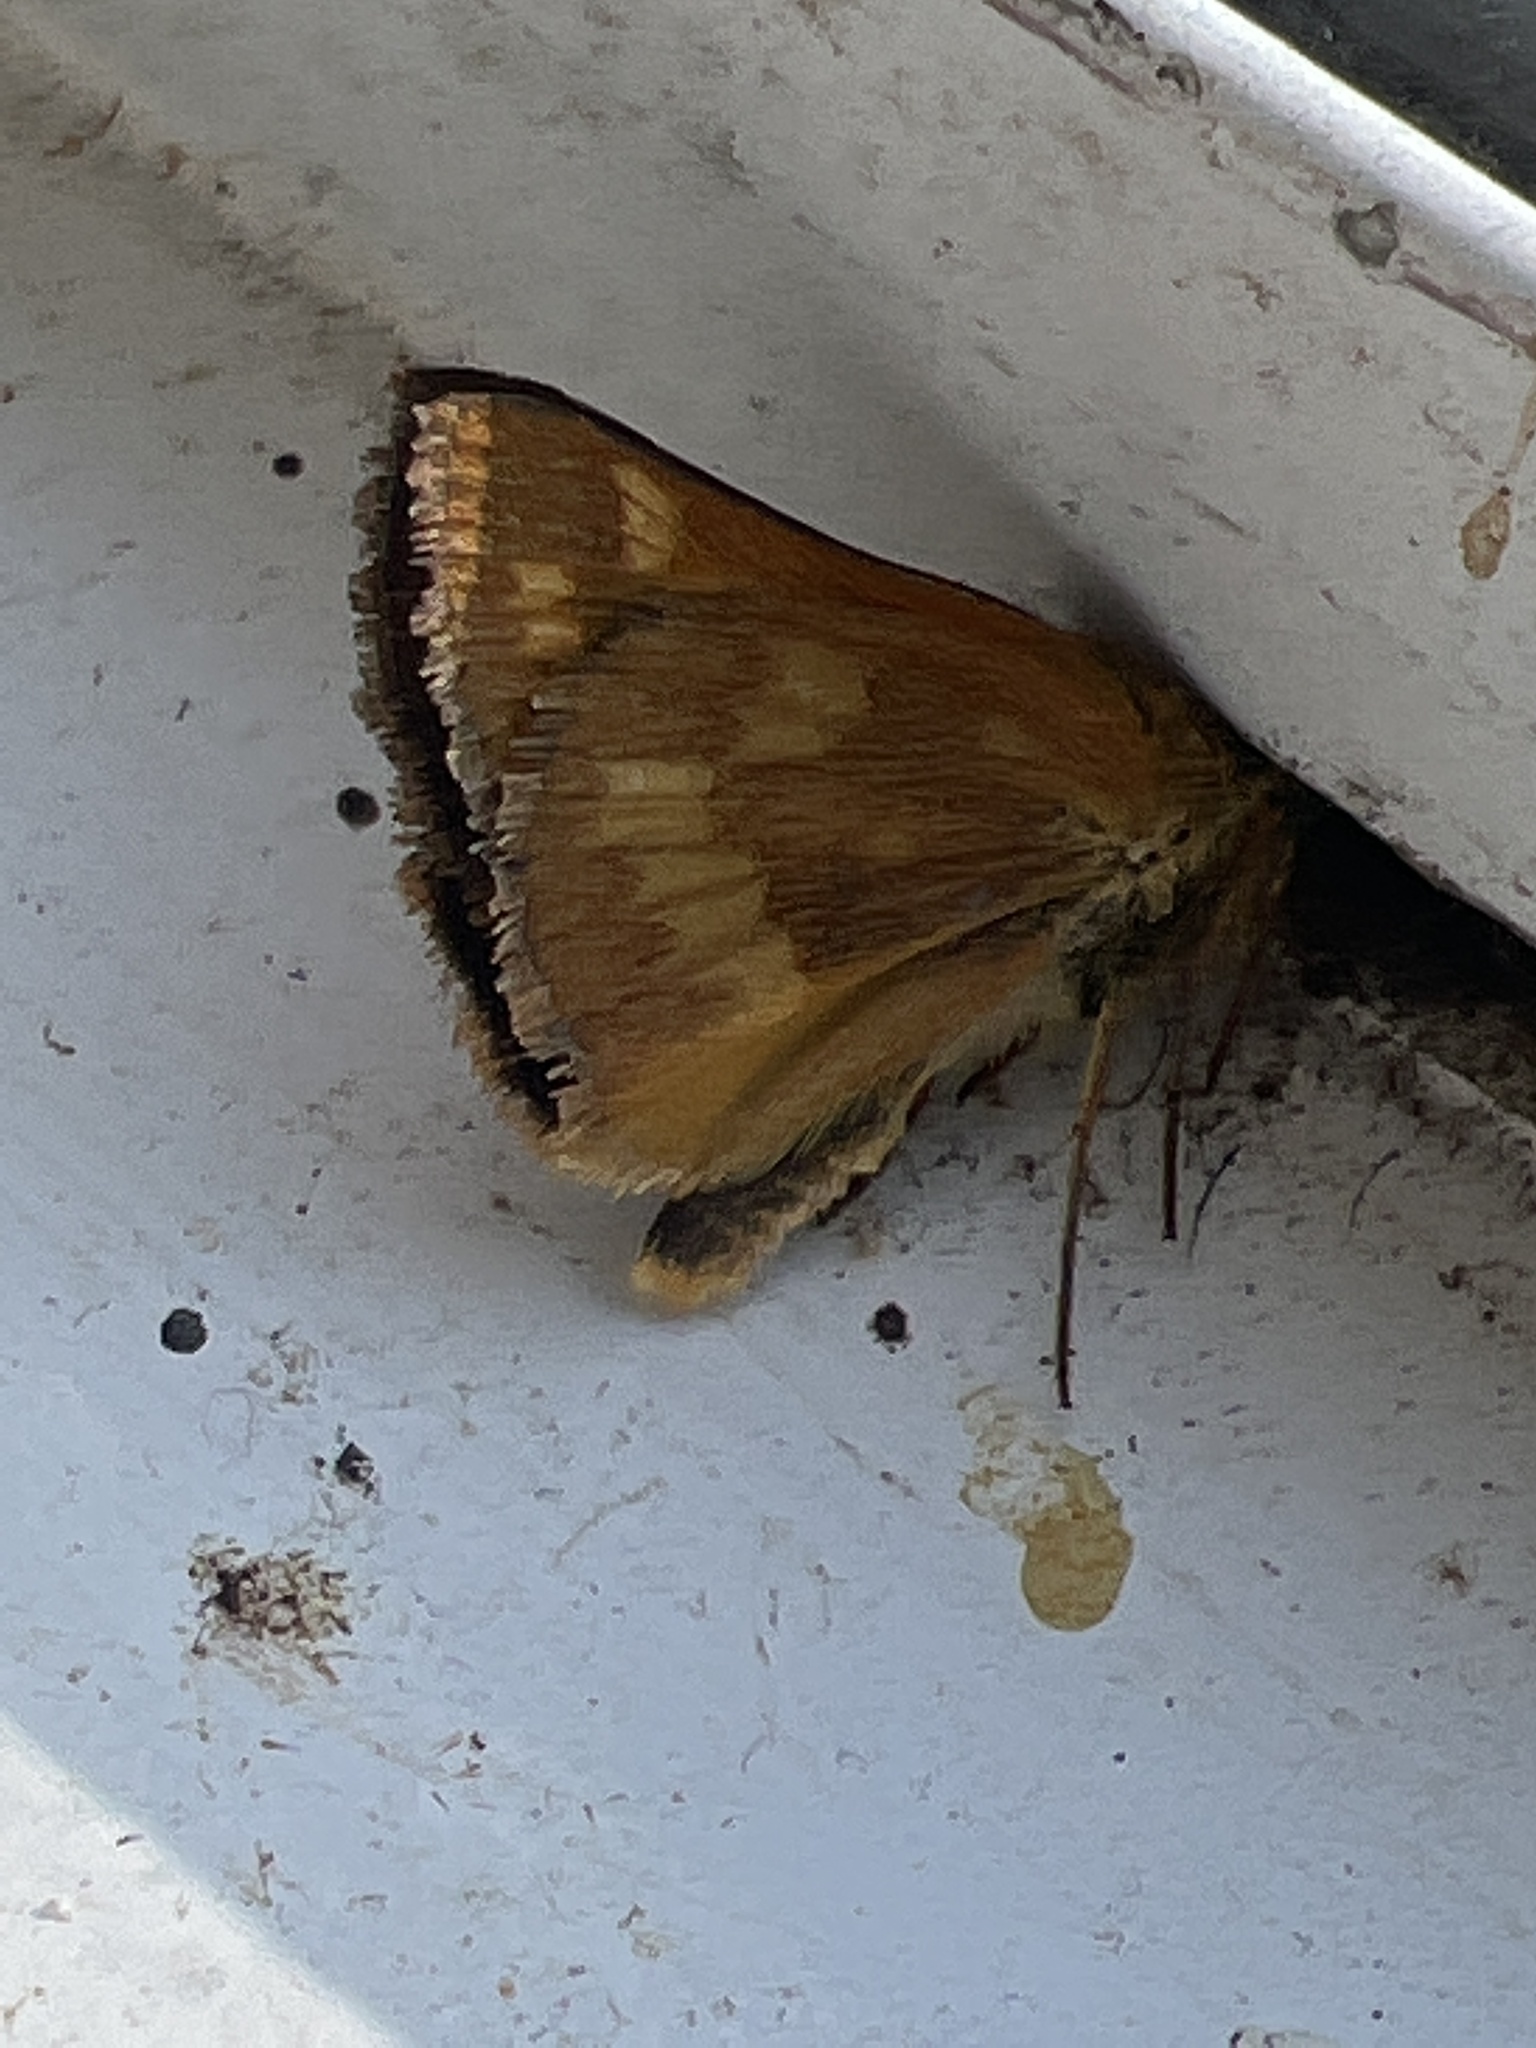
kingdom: Animalia
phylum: Arthropoda
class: Insecta
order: Lepidoptera
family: Hesperiidae
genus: Ochlodes
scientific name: Ochlodes sylvanoides
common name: Woodland skipper
